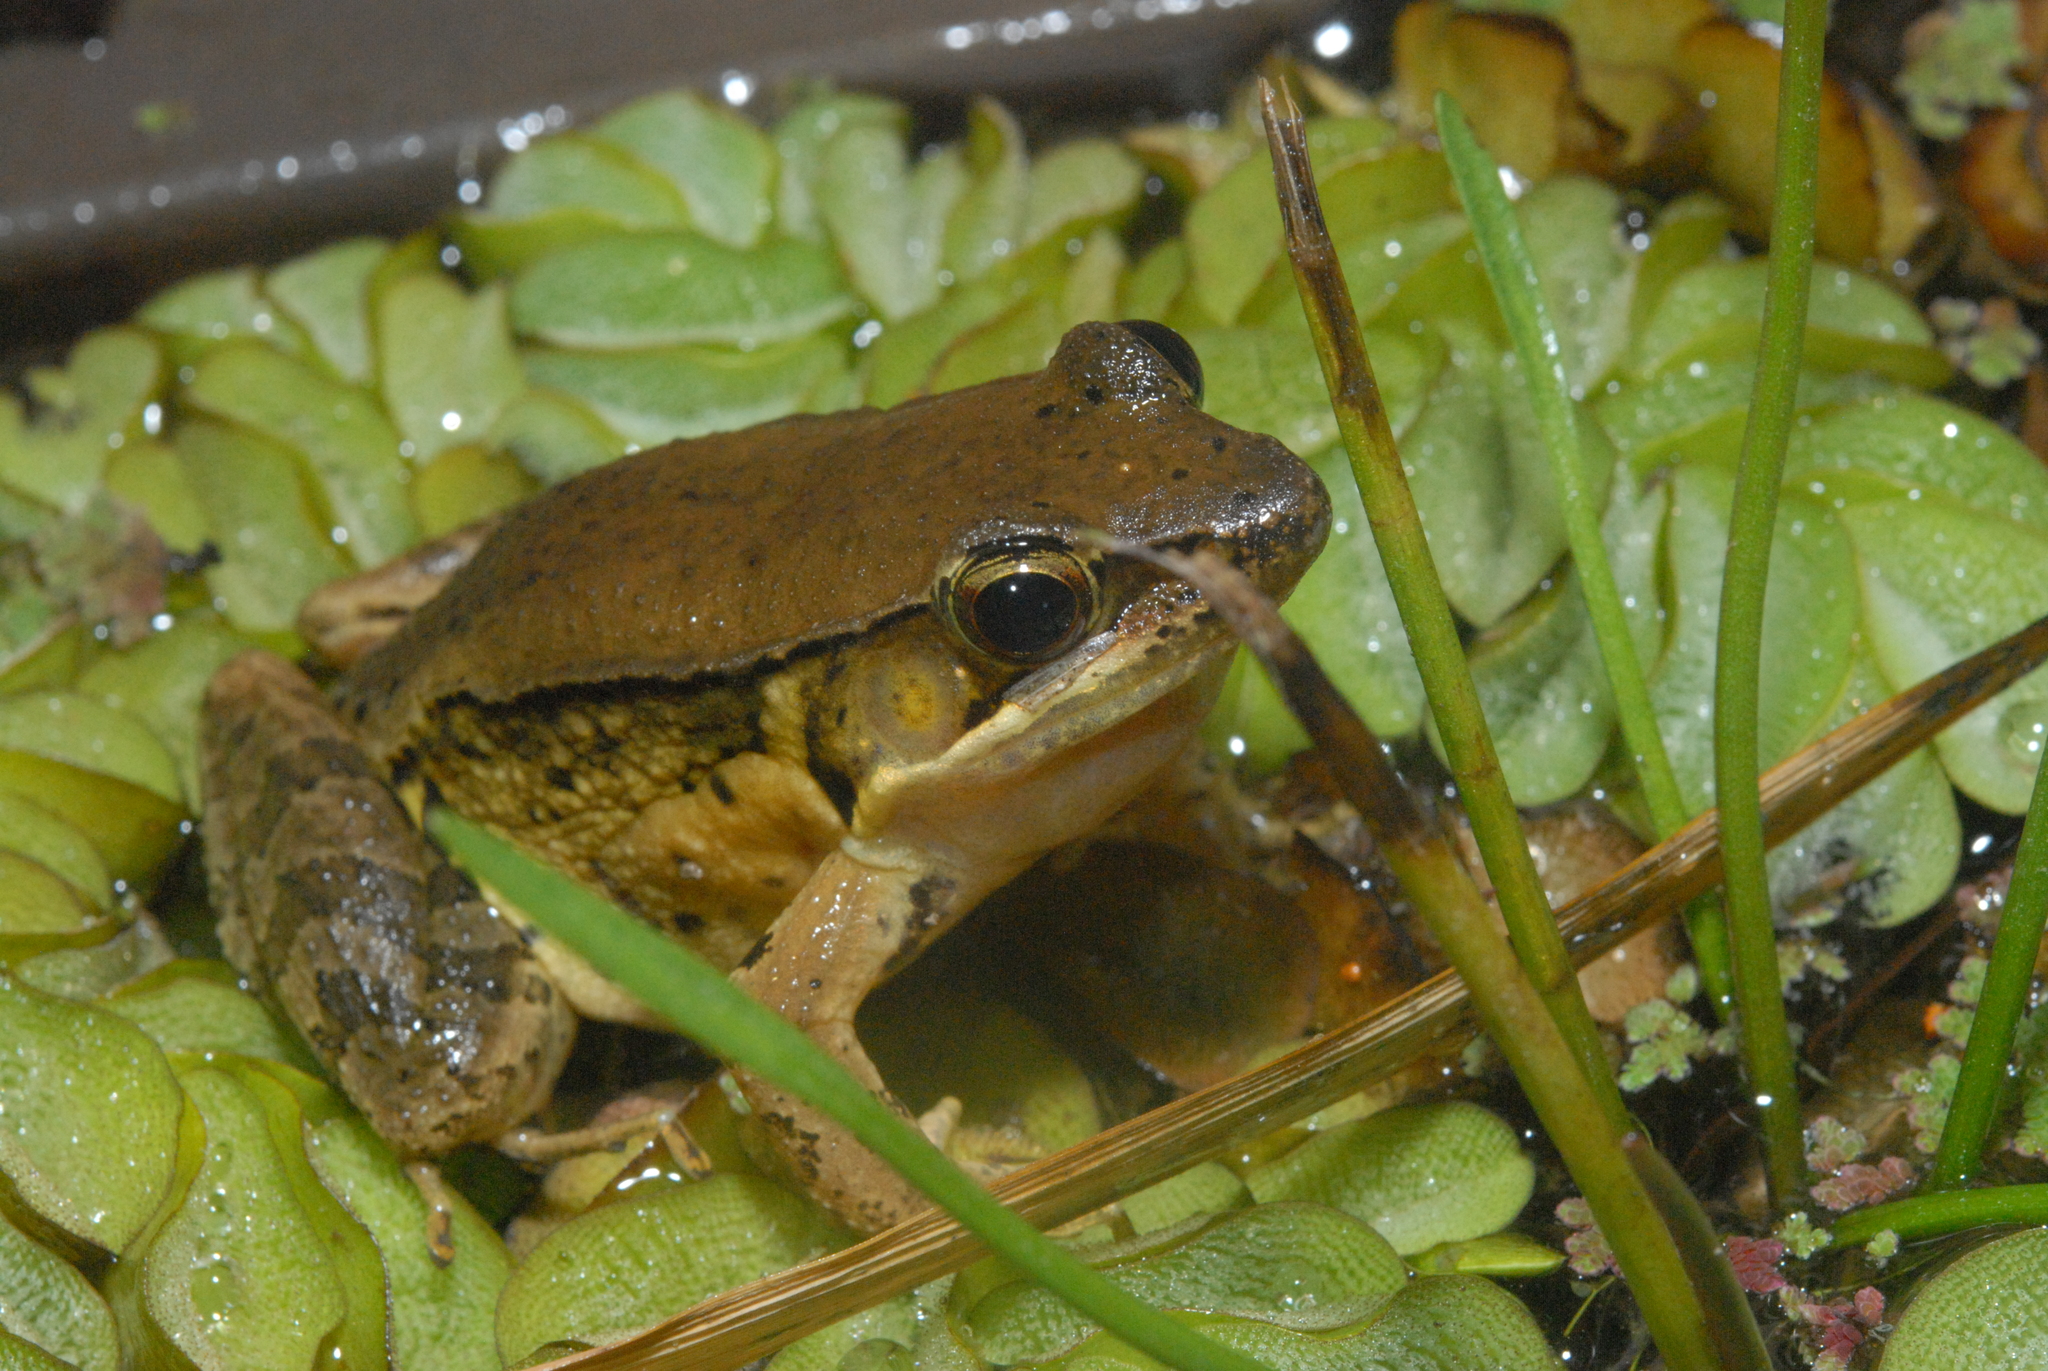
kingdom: Animalia
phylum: Chordata
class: Amphibia
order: Anura
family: Ranidae
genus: Nidirana
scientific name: Nidirana adenopleura
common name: Olive frog
